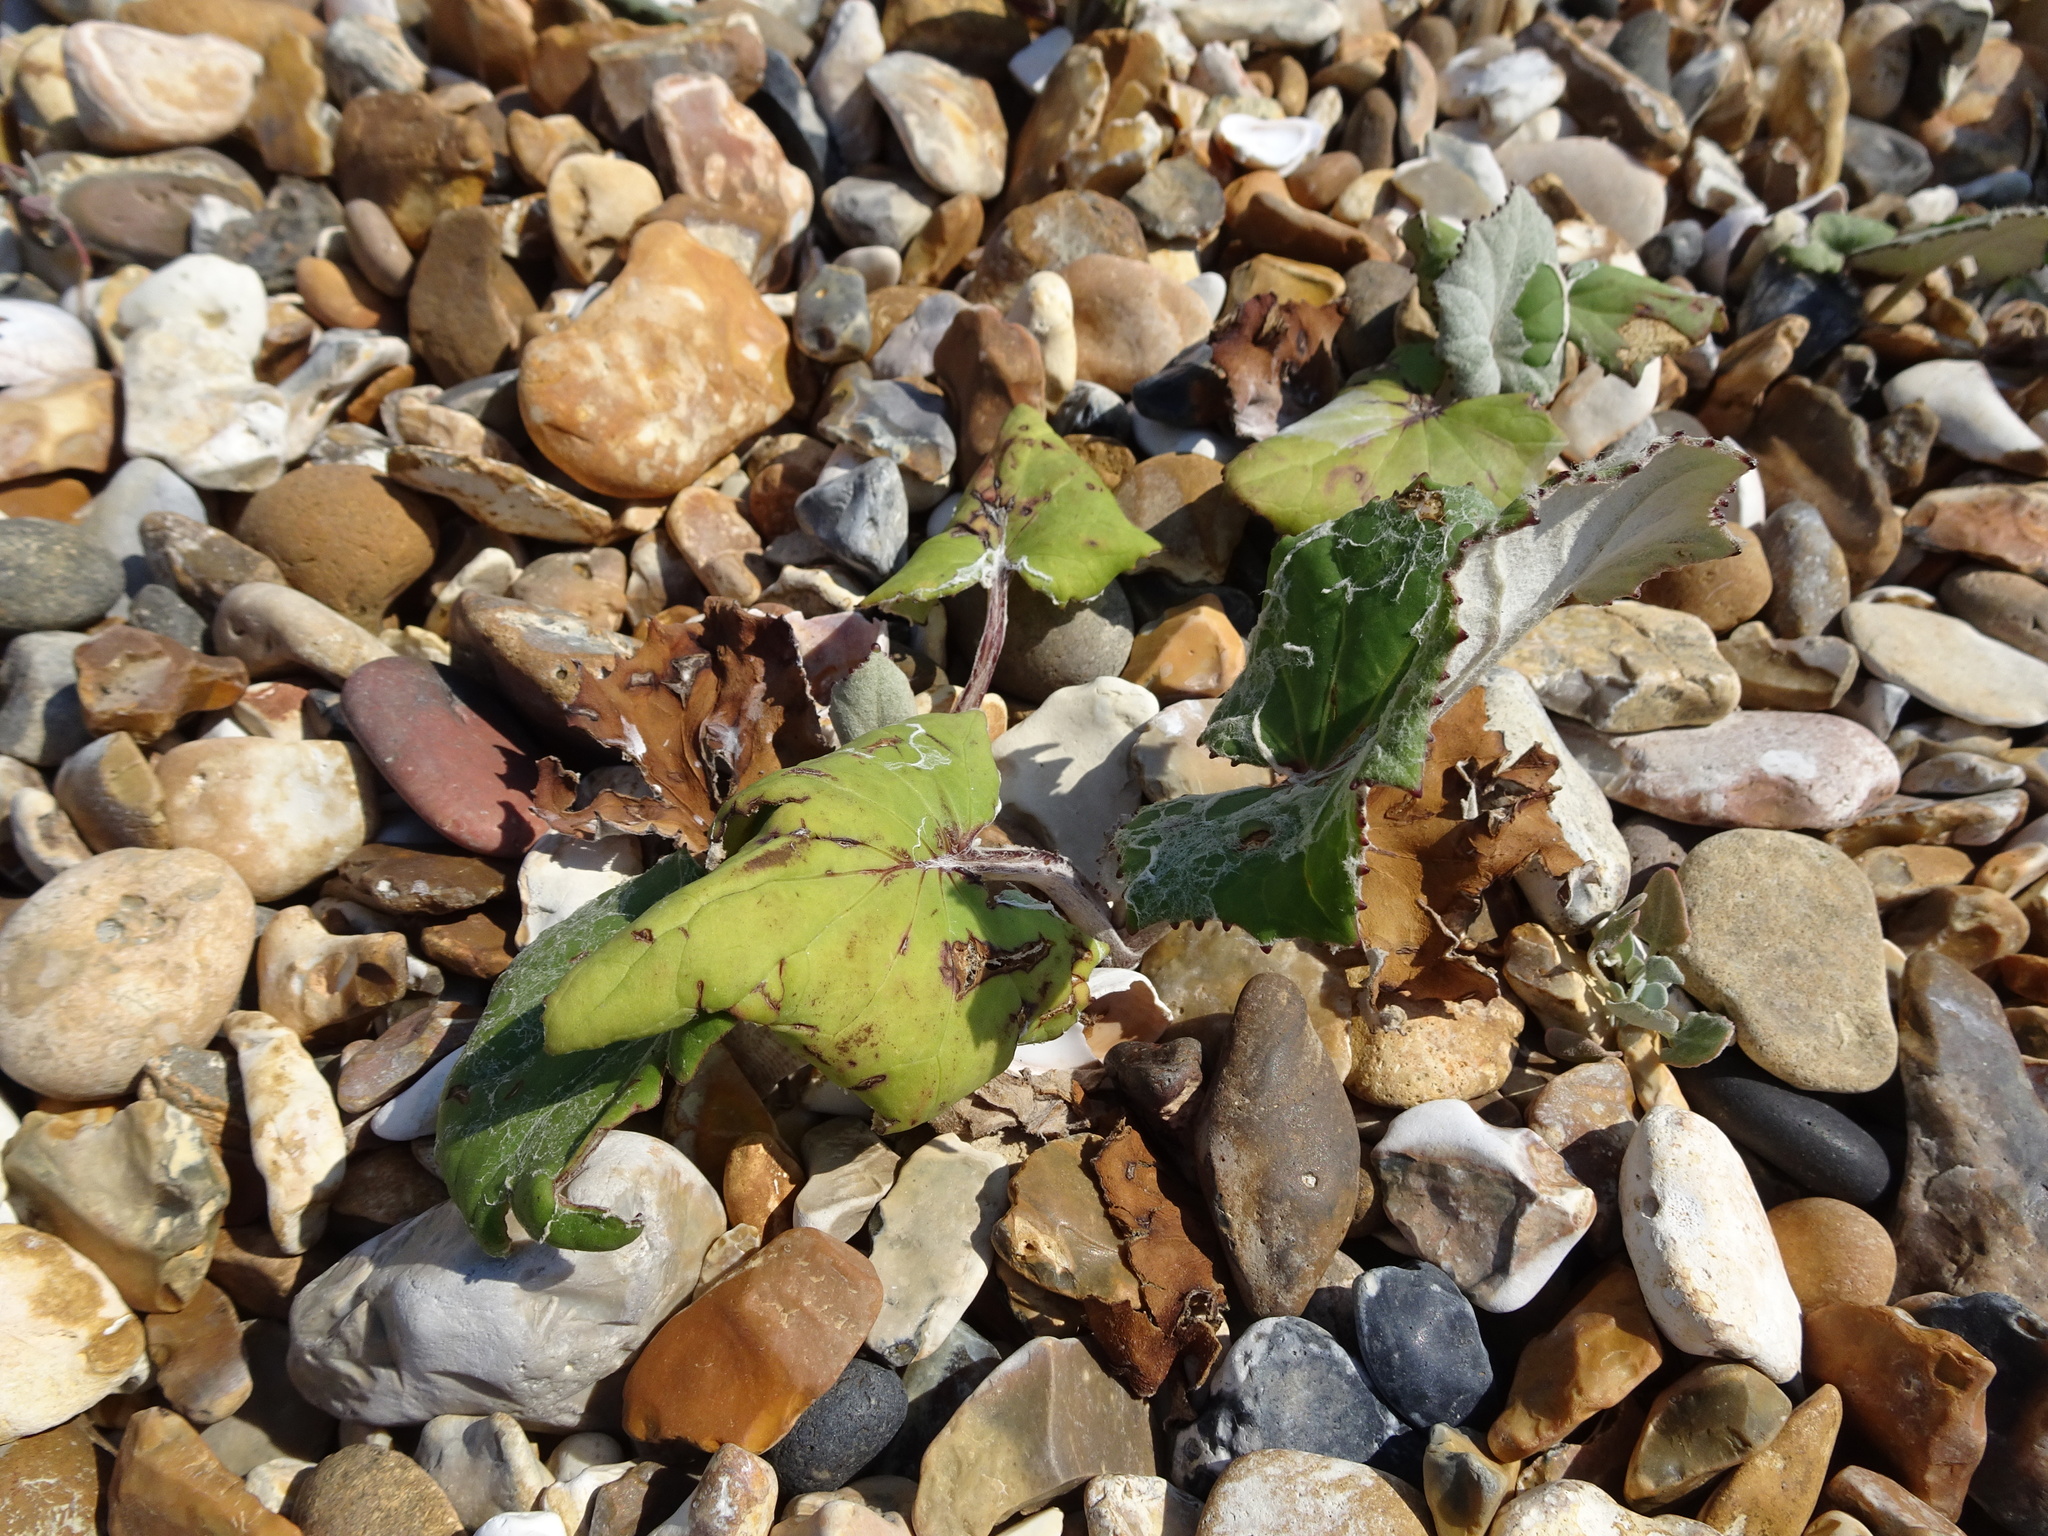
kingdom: Plantae
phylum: Tracheophyta
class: Magnoliopsida
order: Asterales
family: Asteraceae
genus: Tussilago
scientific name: Tussilago farfara
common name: Coltsfoot
